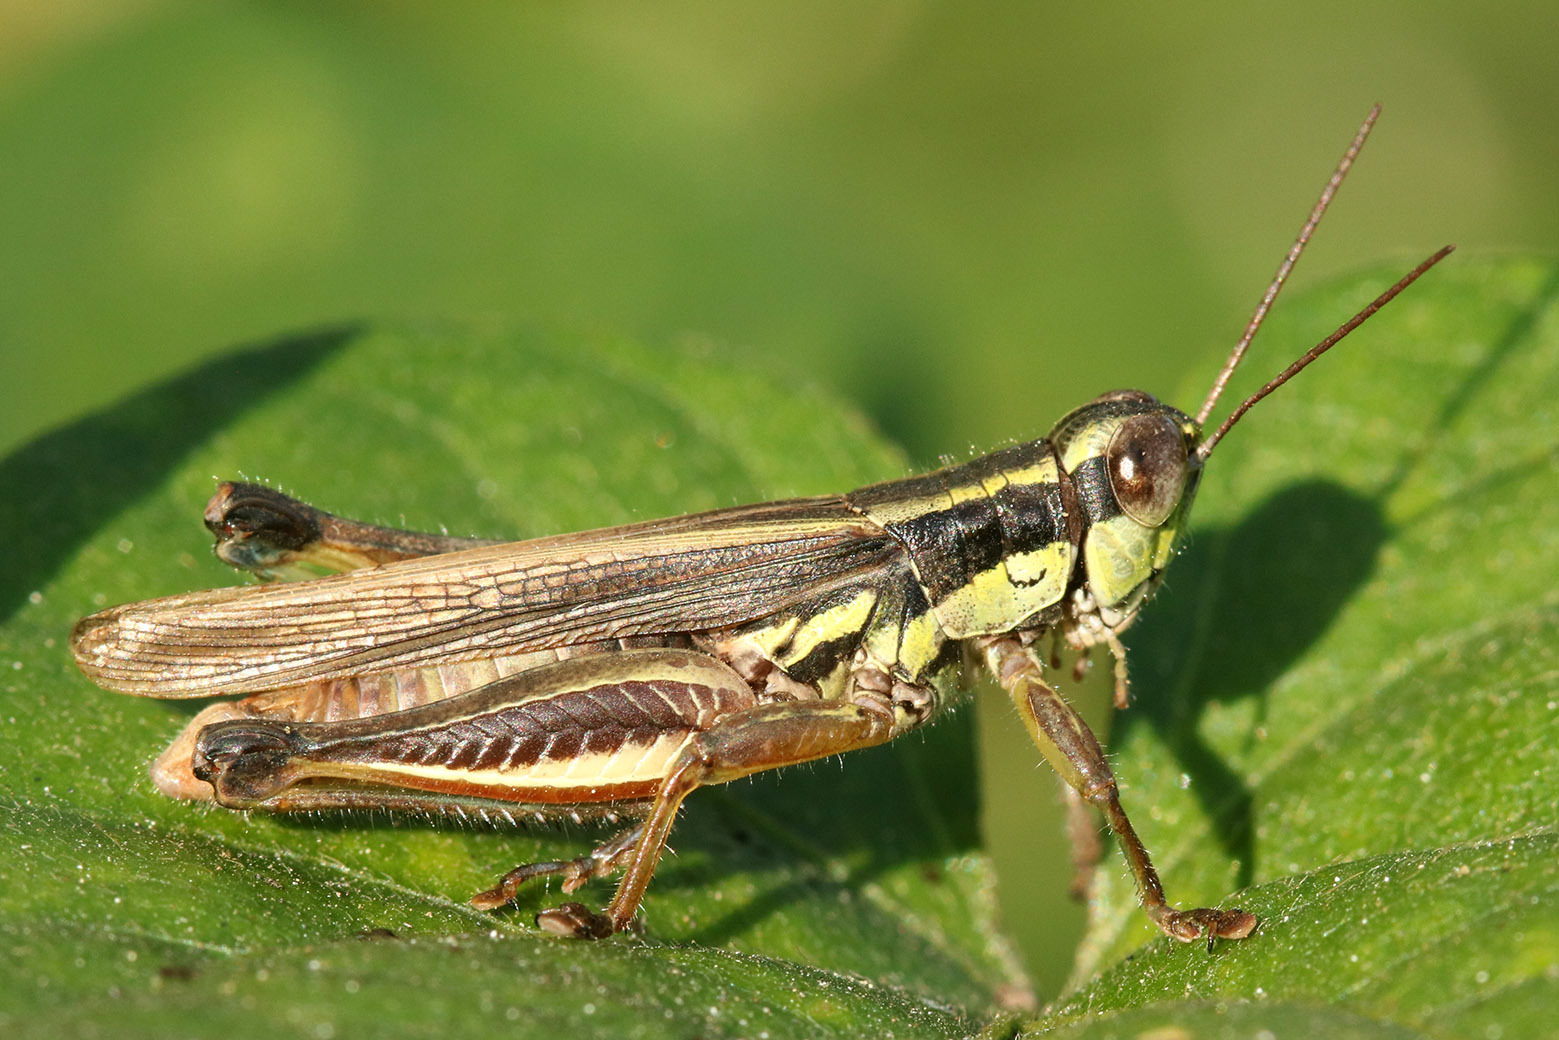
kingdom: Animalia
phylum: Arthropoda
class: Insecta
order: Orthoptera
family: Acrididae
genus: Dichroplus
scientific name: Dichroplus elongatus
